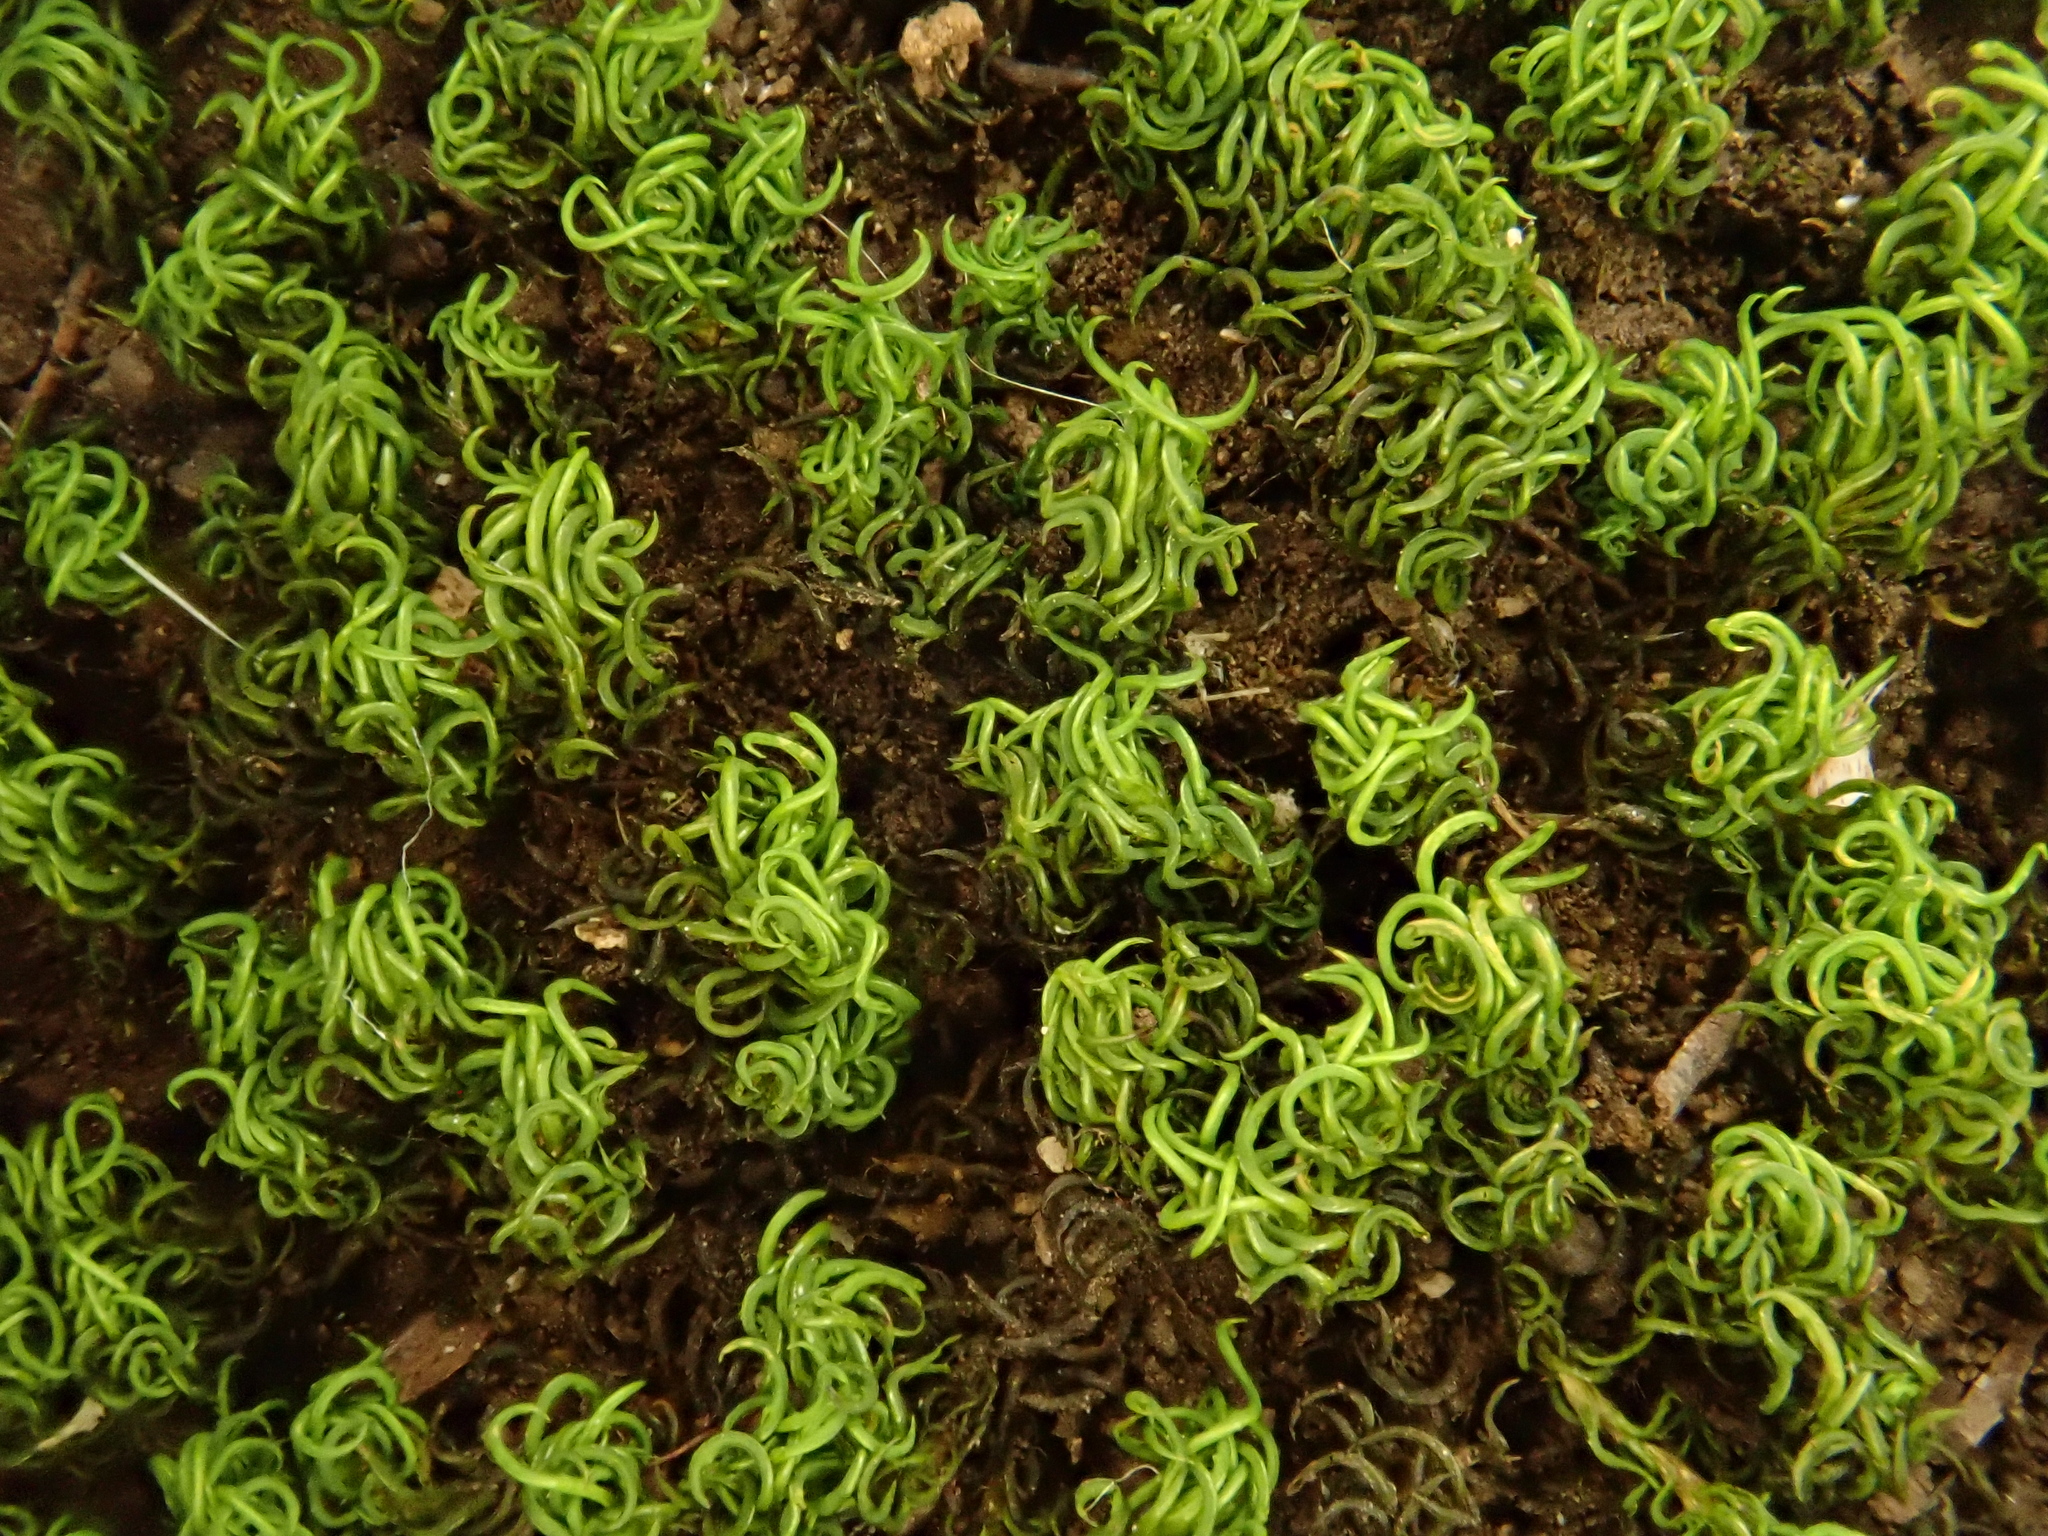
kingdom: Plantae
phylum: Bryophyta
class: Bryopsida
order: Pottiales
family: Pottiaceae
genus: Trichostomum
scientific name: Trichostomum brachydontium
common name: Variable crisp-moss
